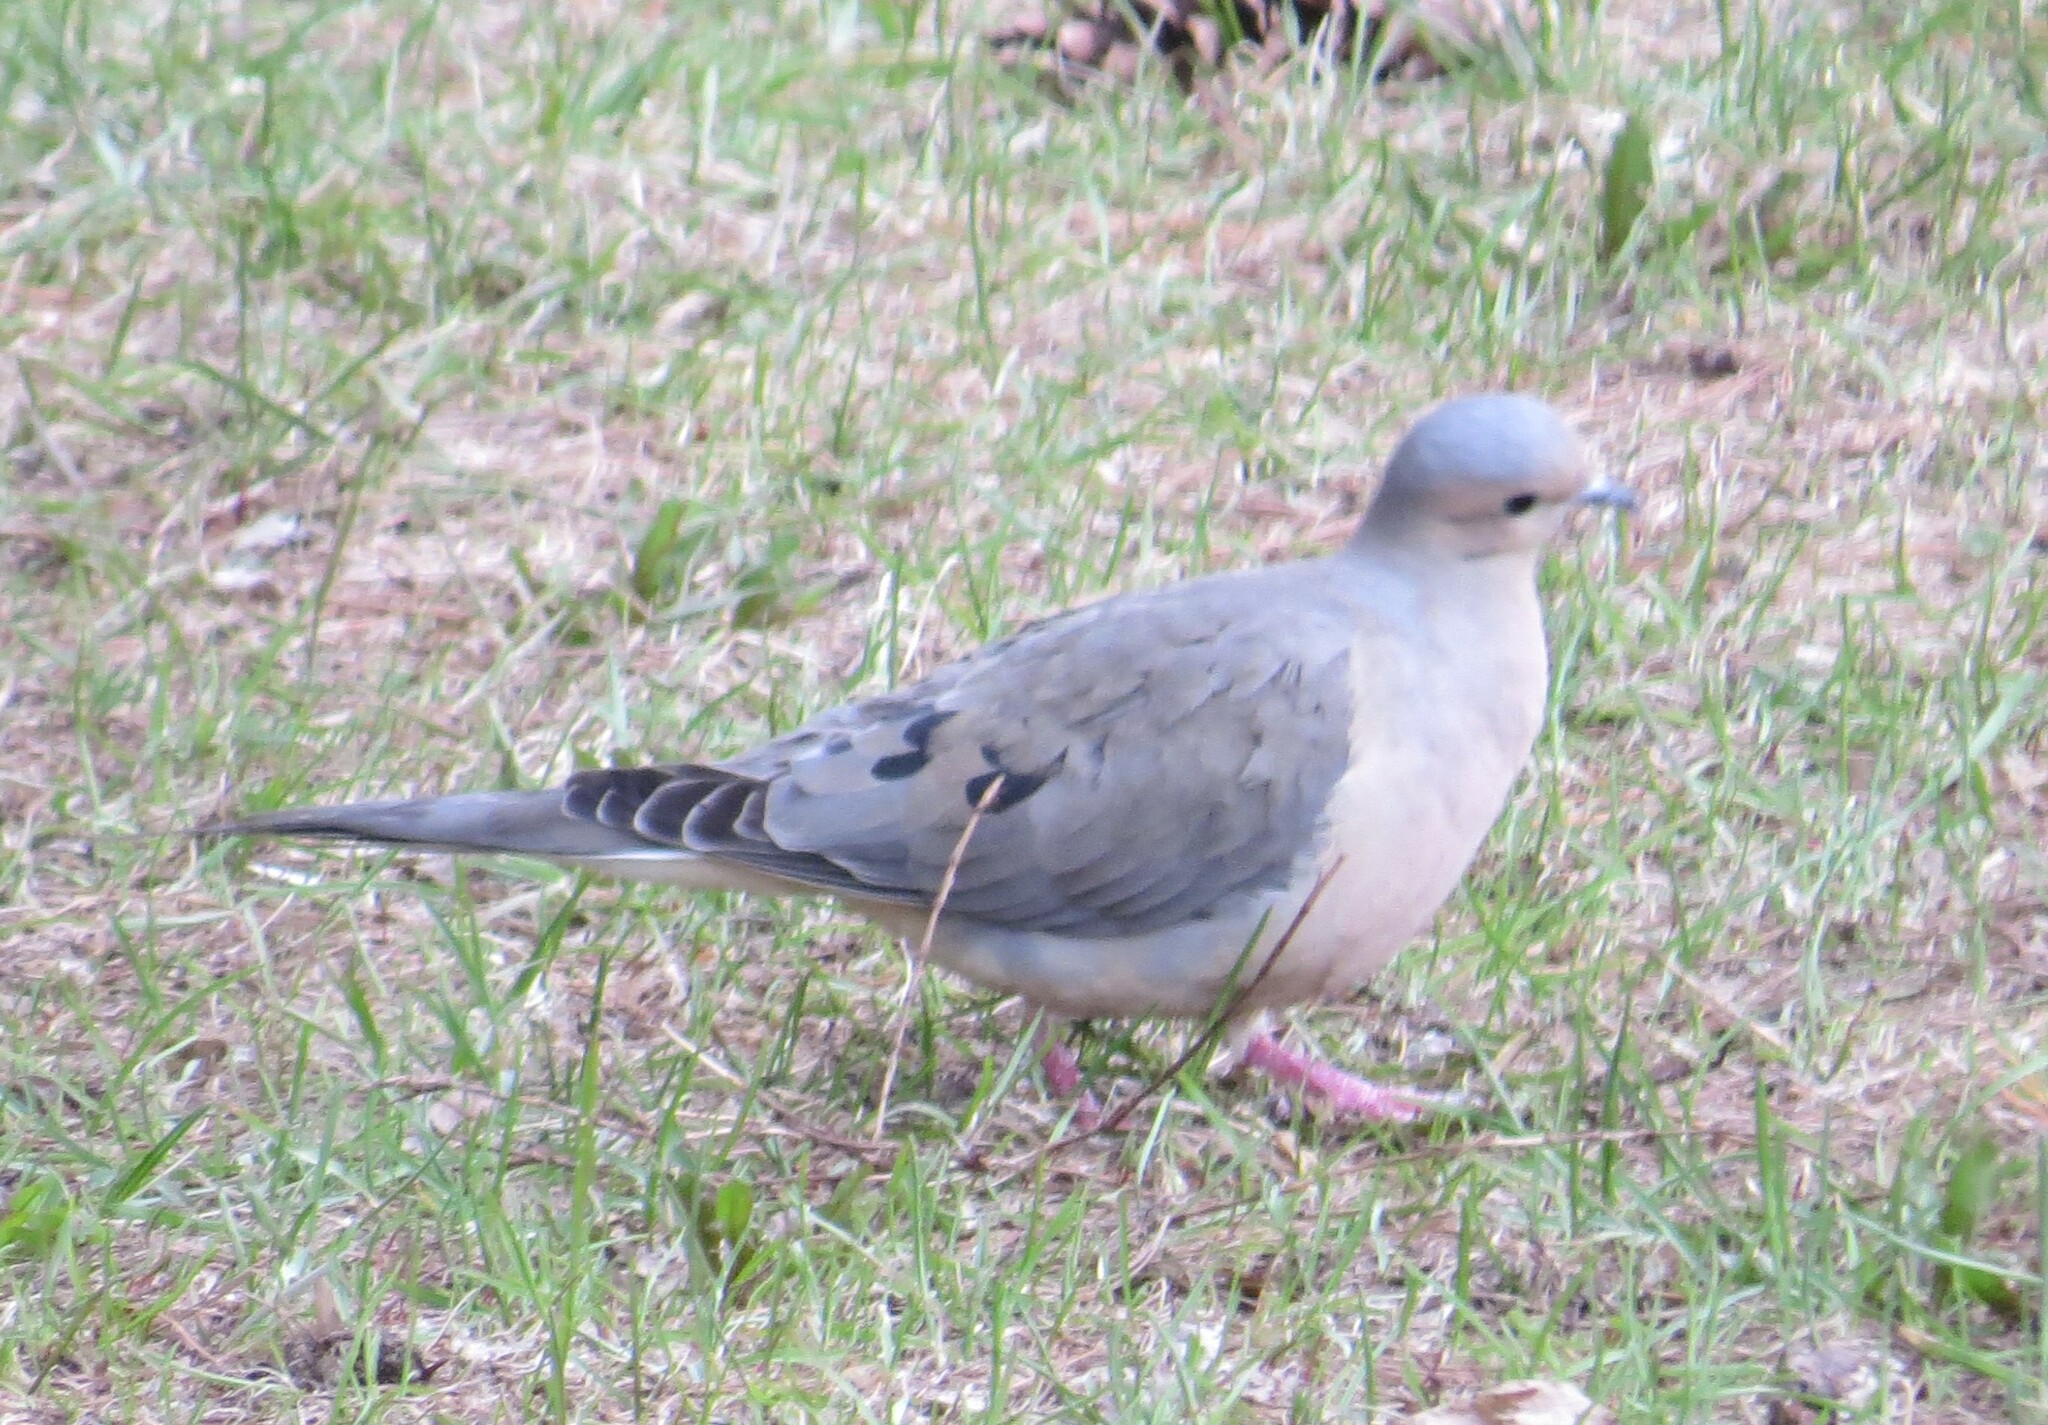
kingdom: Animalia
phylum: Chordata
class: Aves
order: Columbiformes
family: Columbidae
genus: Zenaida
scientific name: Zenaida macroura
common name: Mourning dove
